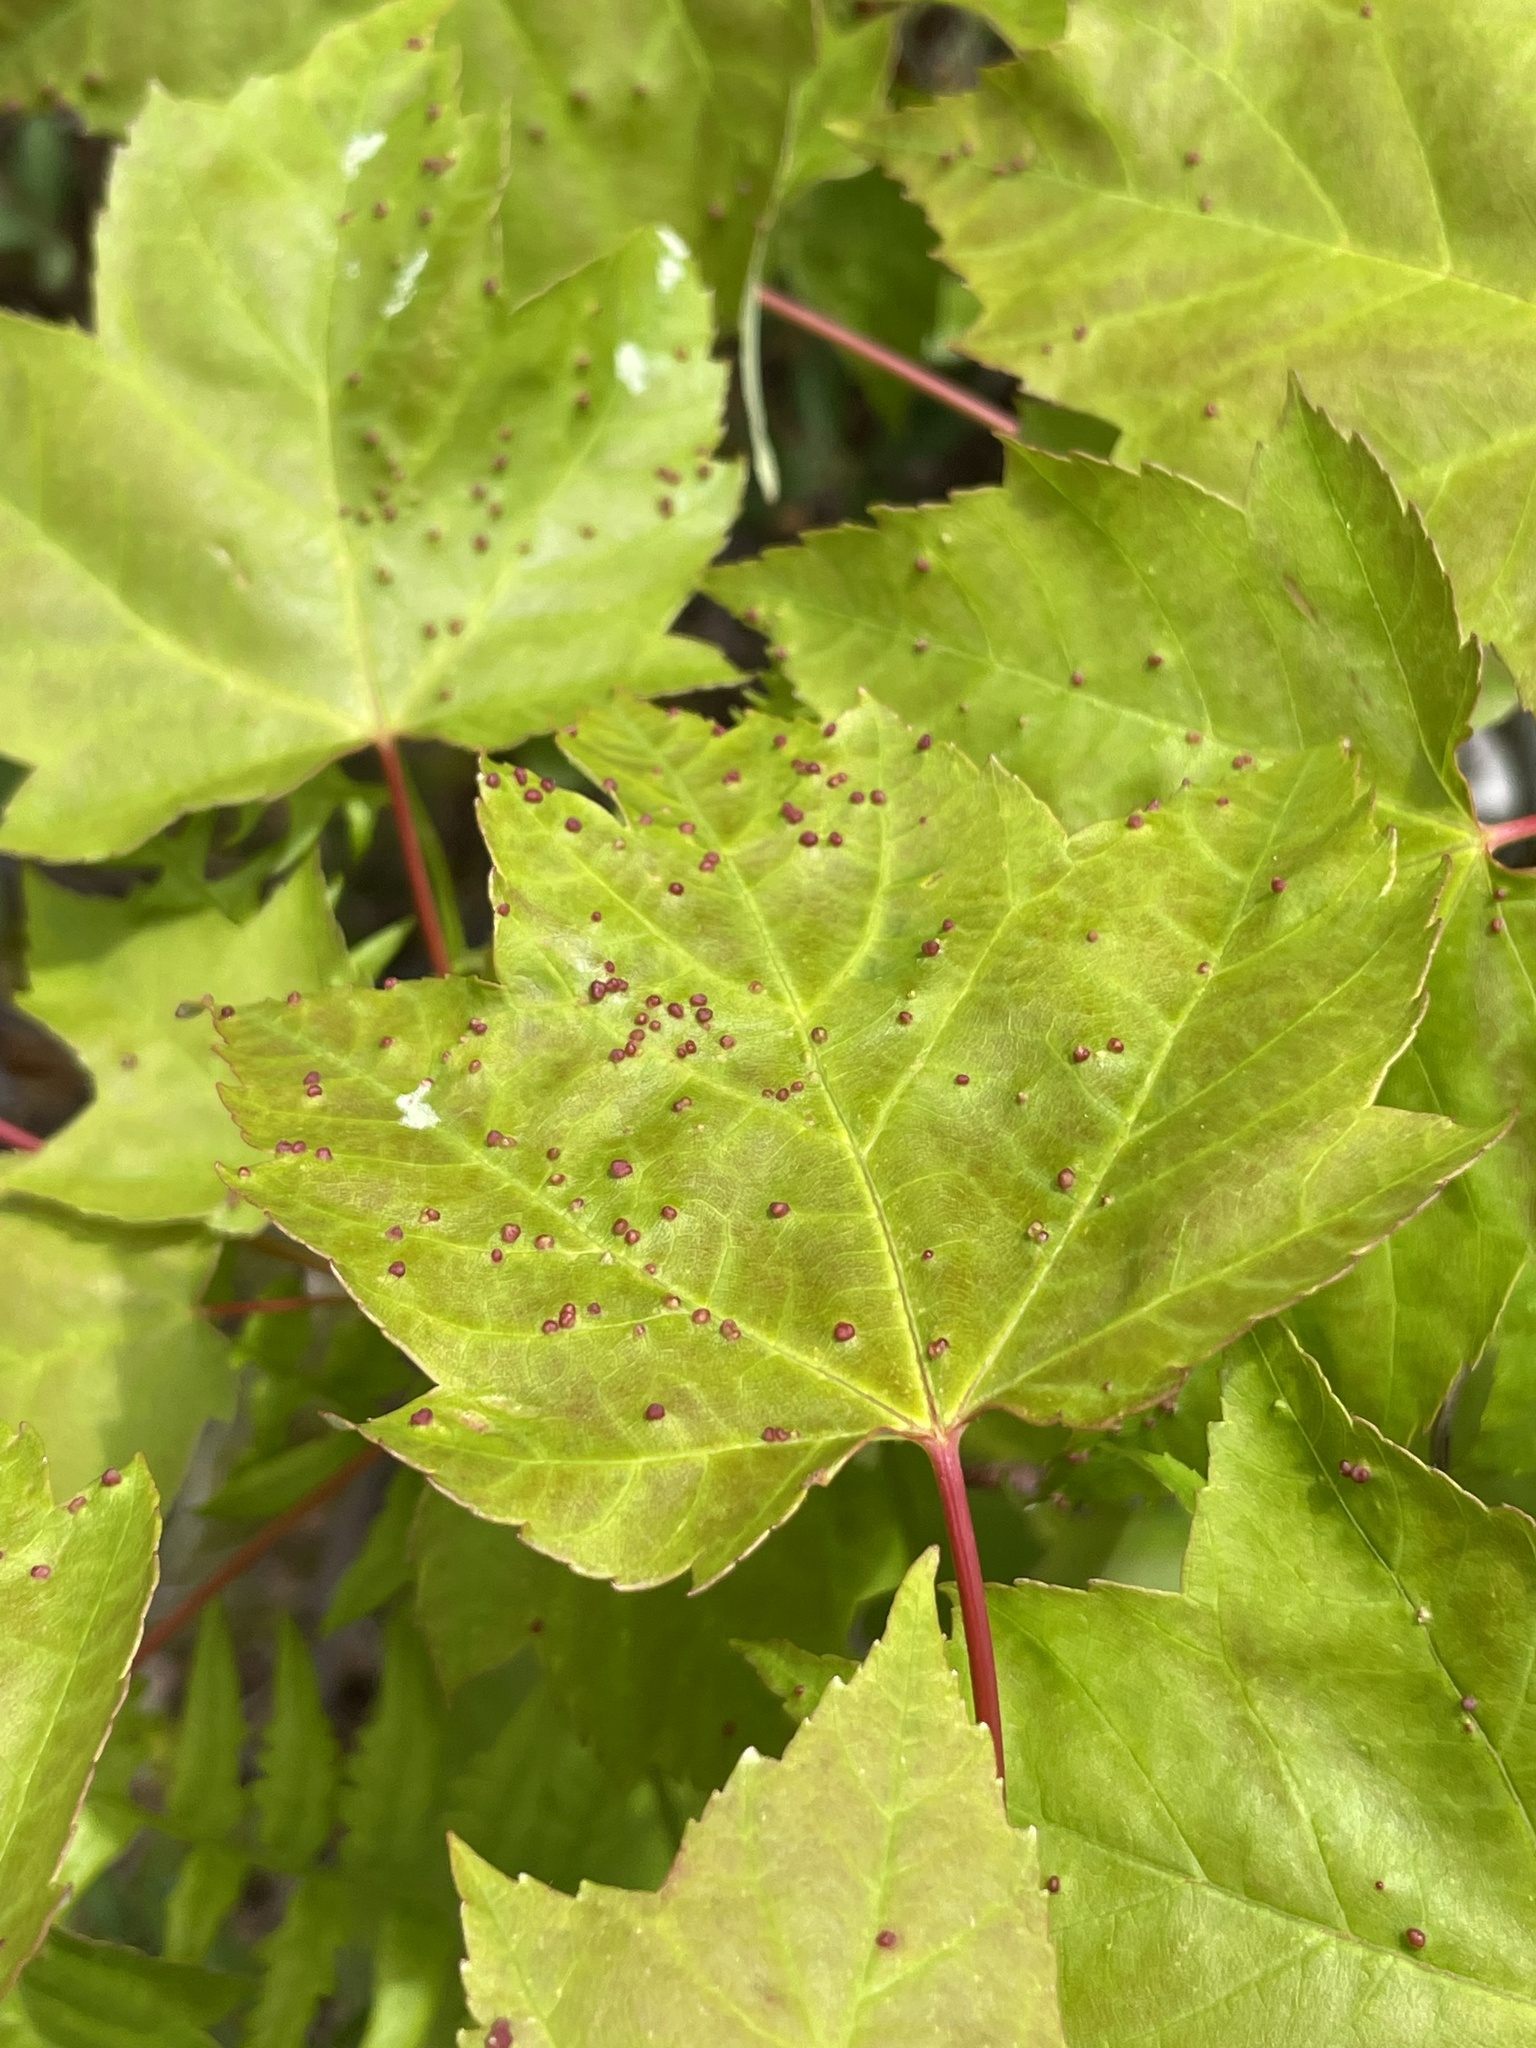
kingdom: Animalia
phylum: Arthropoda
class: Arachnida
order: Trombidiformes
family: Eriophyidae
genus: Vasates
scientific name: Vasates quadripedes
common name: Maple bladder gall mite
